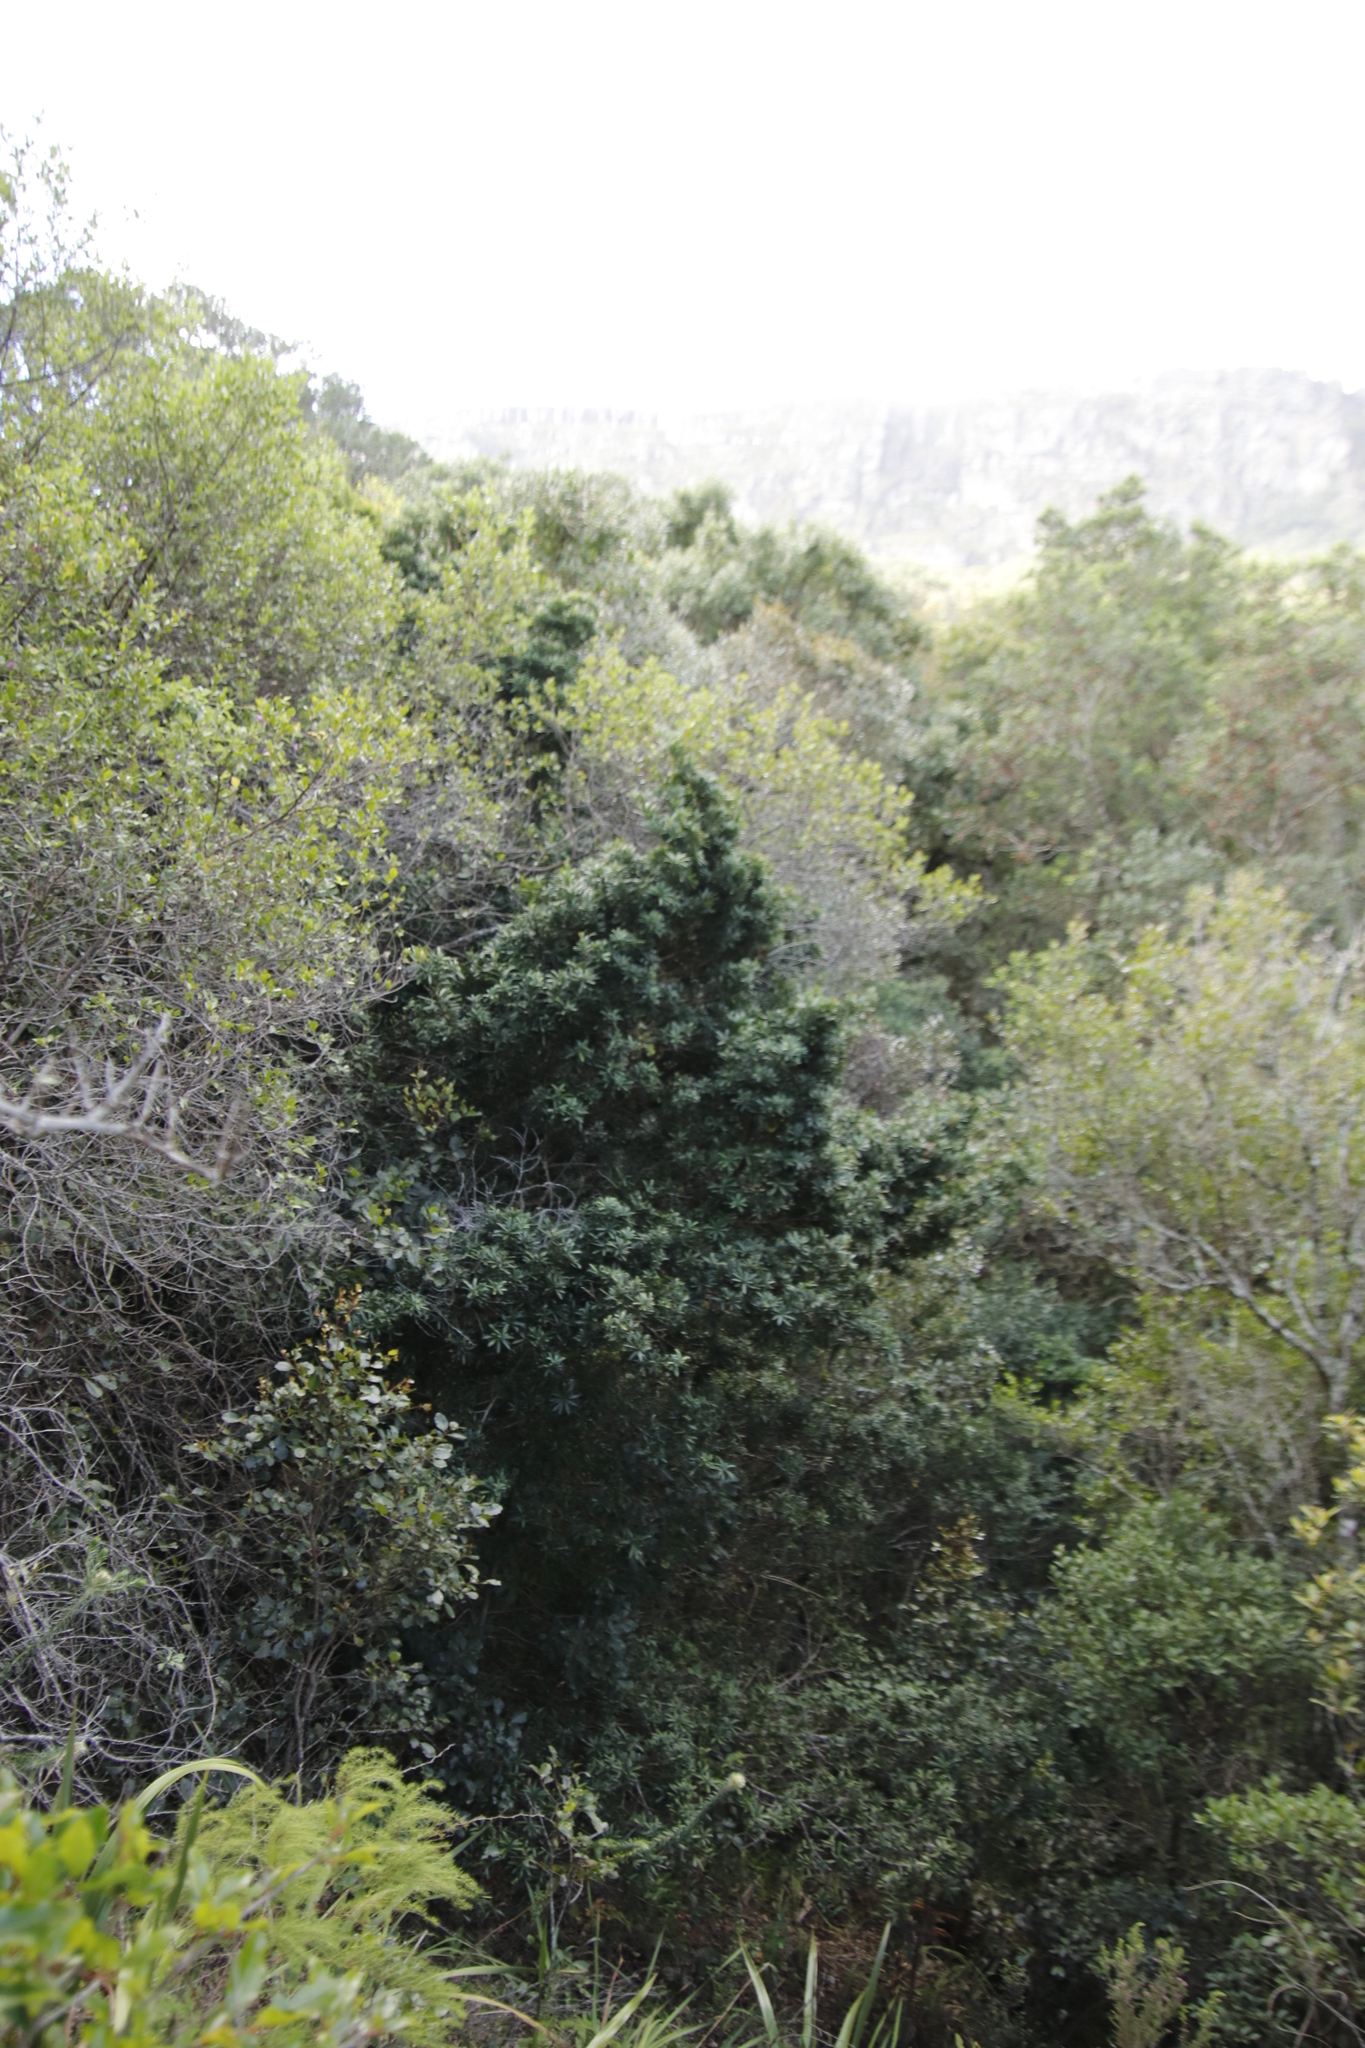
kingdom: Plantae
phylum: Tracheophyta
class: Pinopsida
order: Pinales
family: Podocarpaceae
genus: Podocarpus
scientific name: Podocarpus latifolius
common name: True yellowwood
